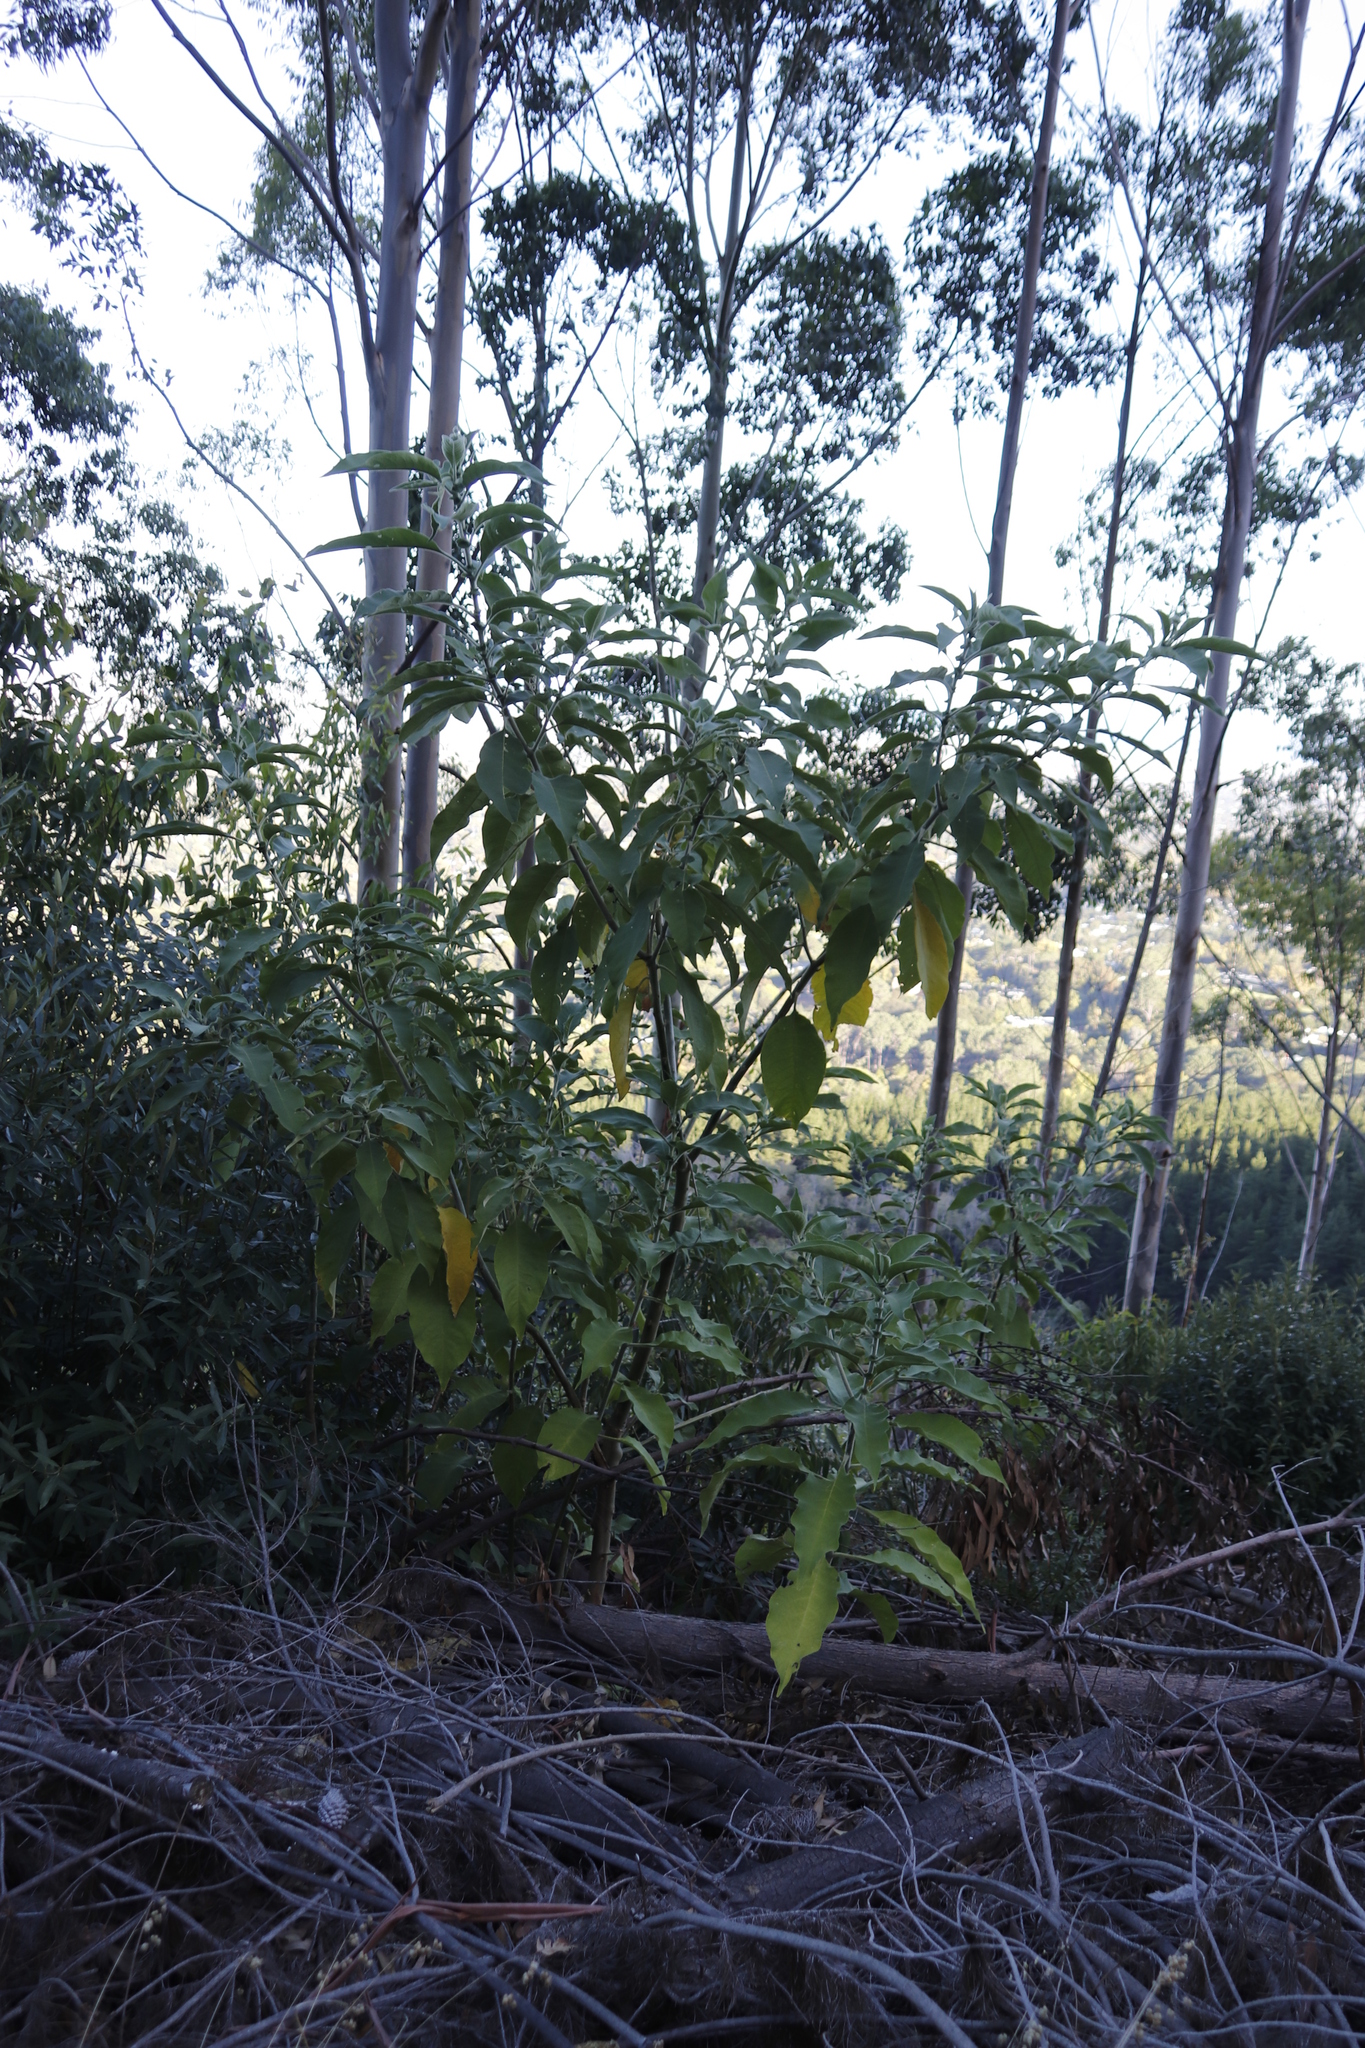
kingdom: Plantae
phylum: Tracheophyta
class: Magnoliopsida
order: Solanales
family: Solanaceae
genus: Solanum
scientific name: Solanum mauritianum
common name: Earleaf nightshade
